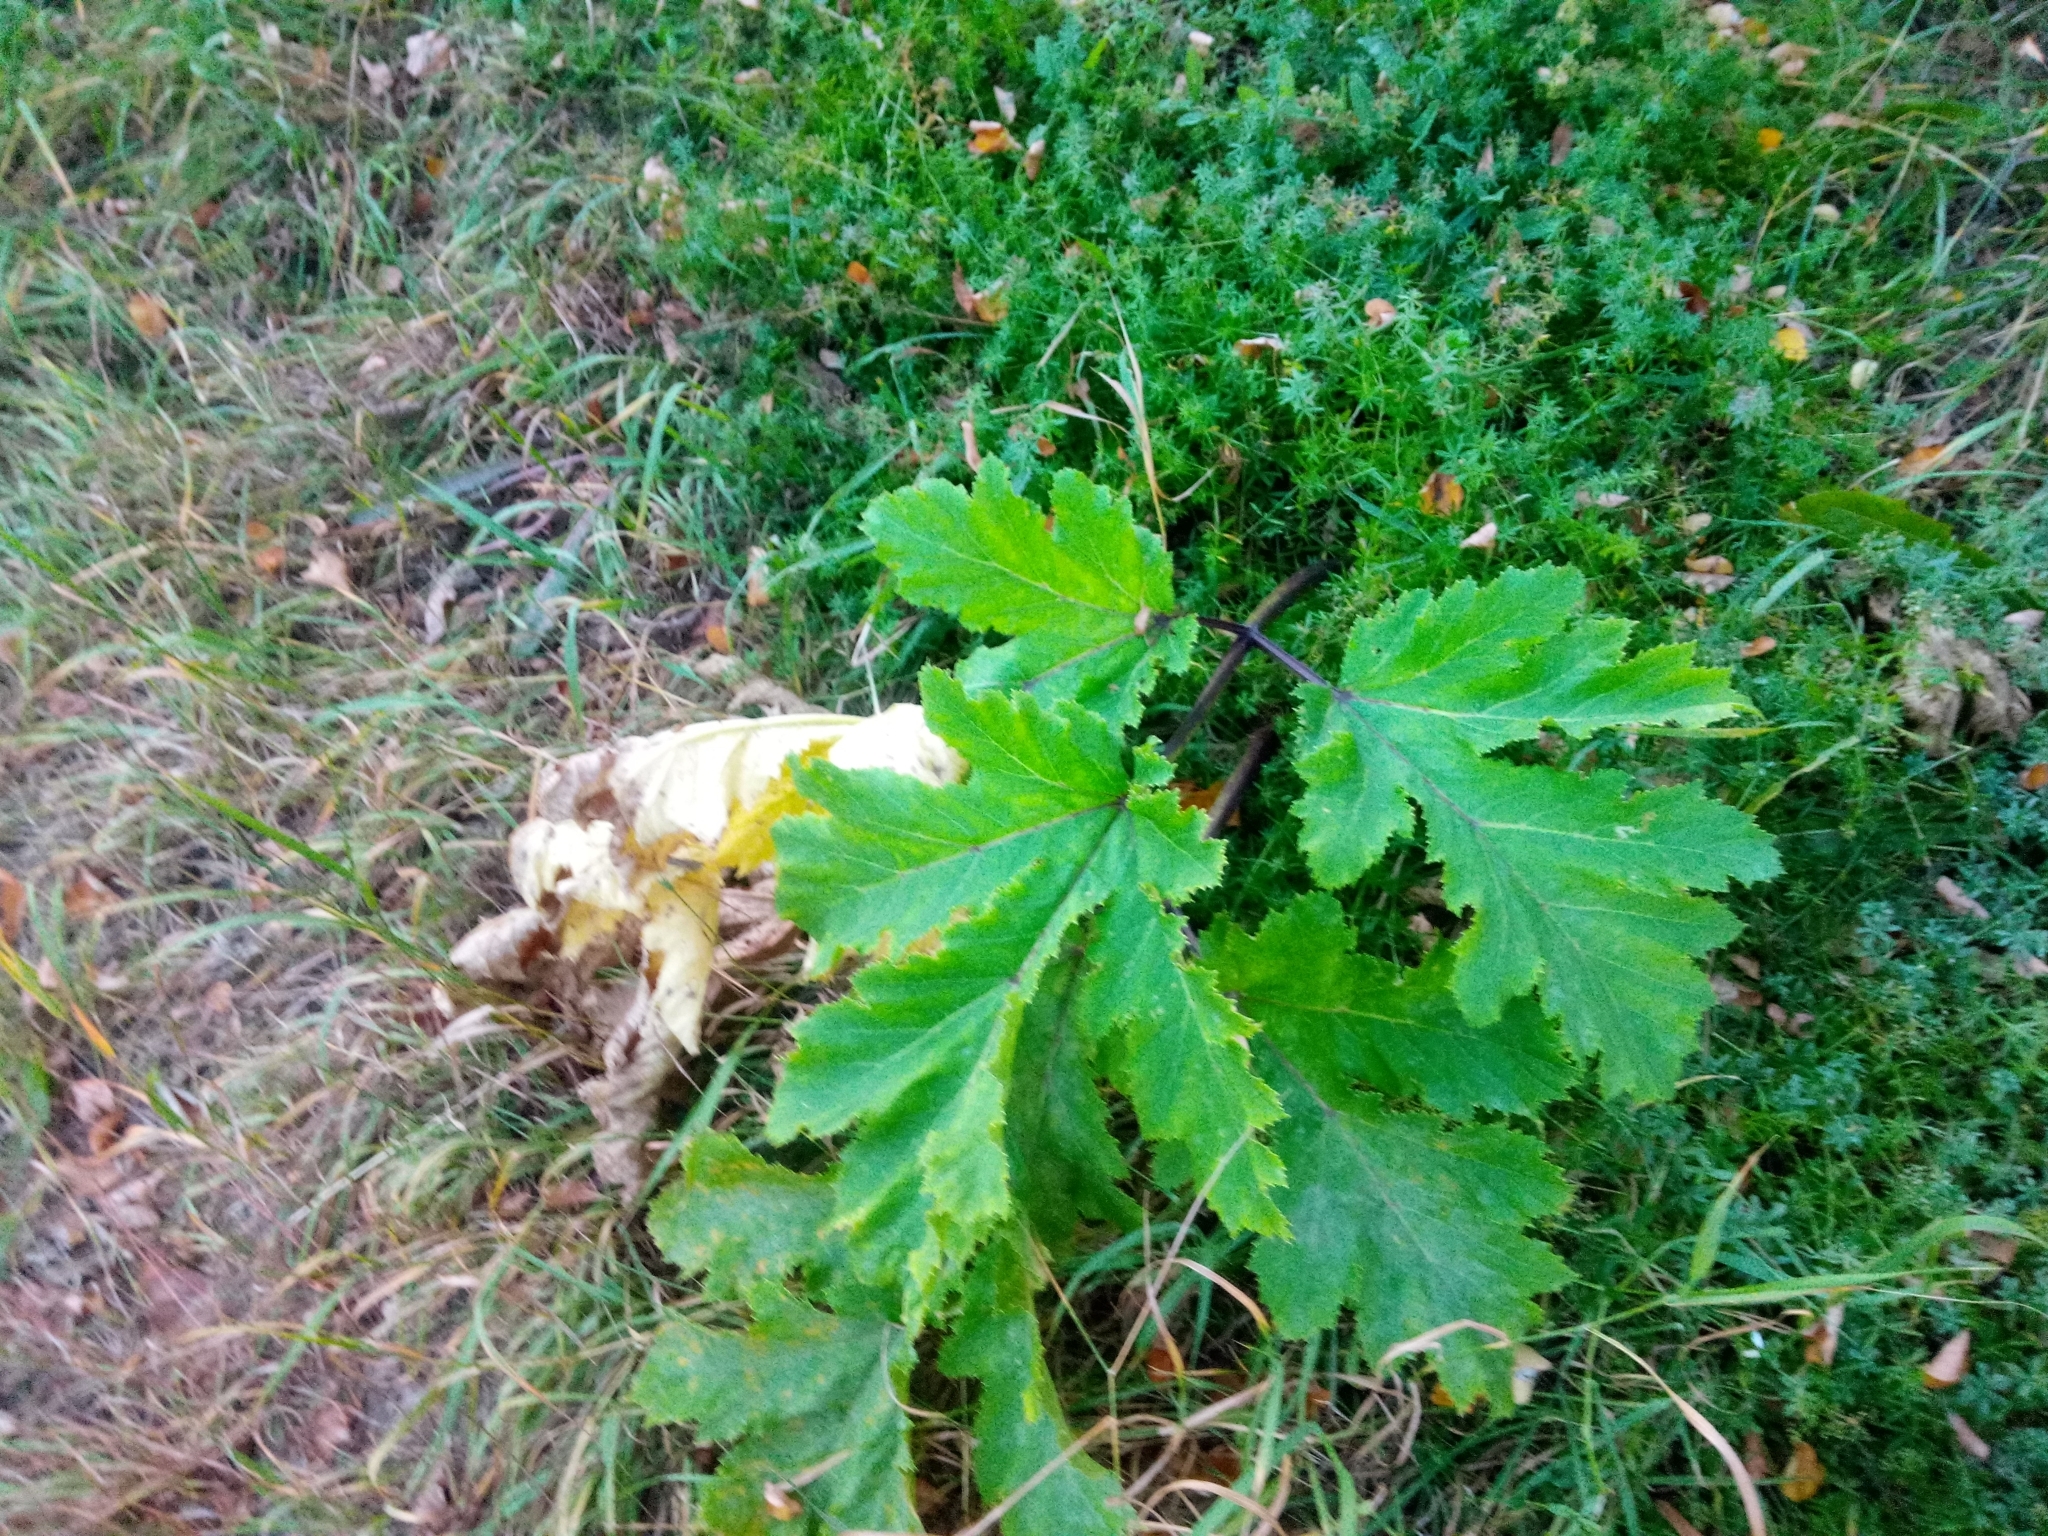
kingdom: Plantae
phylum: Tracheophyta
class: Magnoliopsida
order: Apiales
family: Apiaceae
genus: Heracleum
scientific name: Heracleum sosnowskyi
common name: Sosnowsky's hogweed
